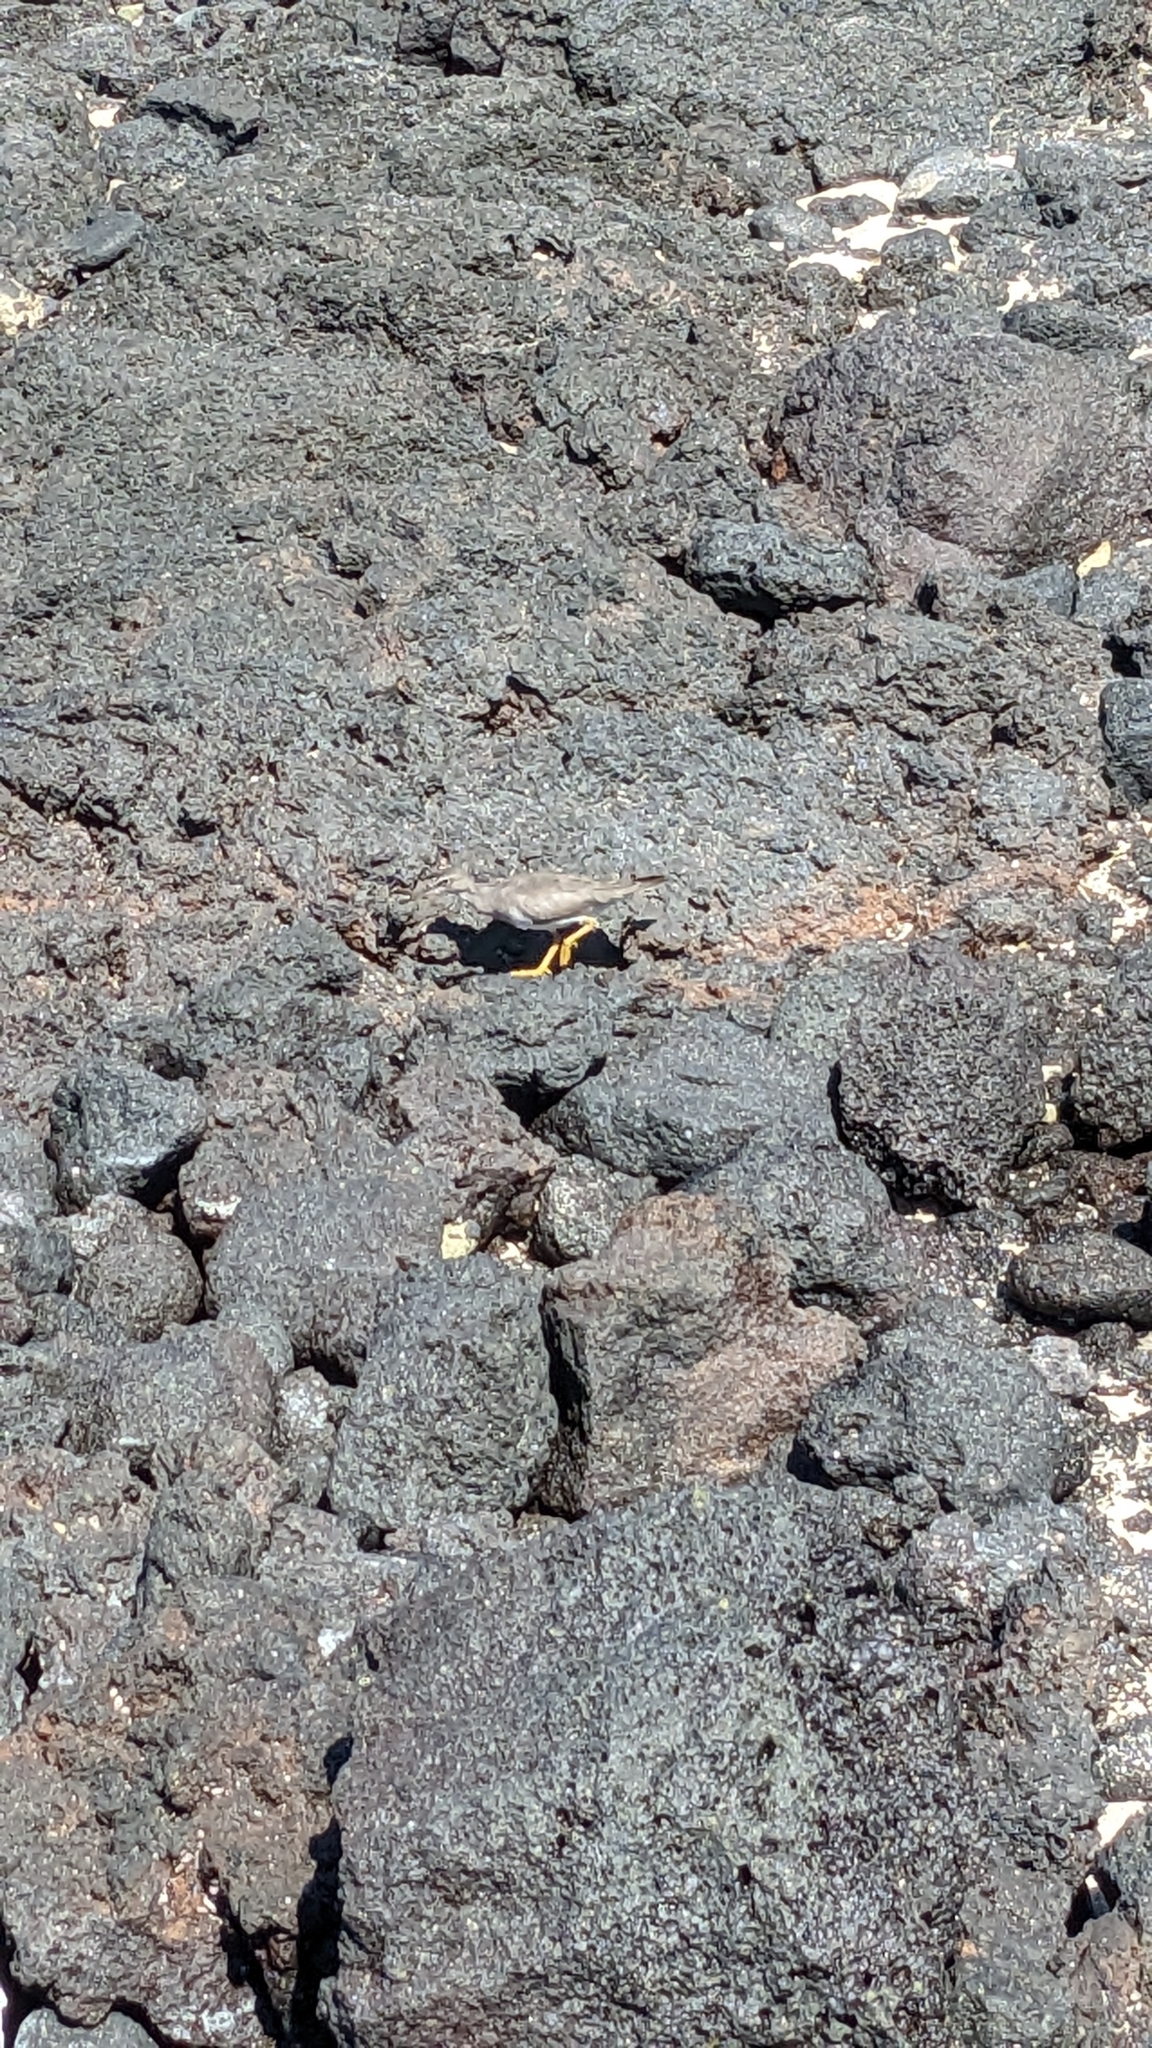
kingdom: Animalia
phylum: Chordata
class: Aves
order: Charadriiformes
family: Scolopacidae
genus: Tringa
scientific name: Tringa incana
